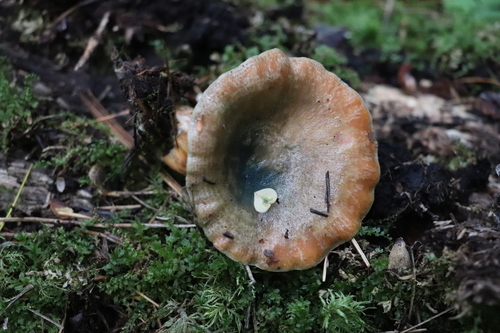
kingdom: Fungi
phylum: Basidiomycota
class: Agaricomycetes
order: Russulales
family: Russulaceae
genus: Lactarius
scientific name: Lactarius deterrimus
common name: False saffron milkcap
